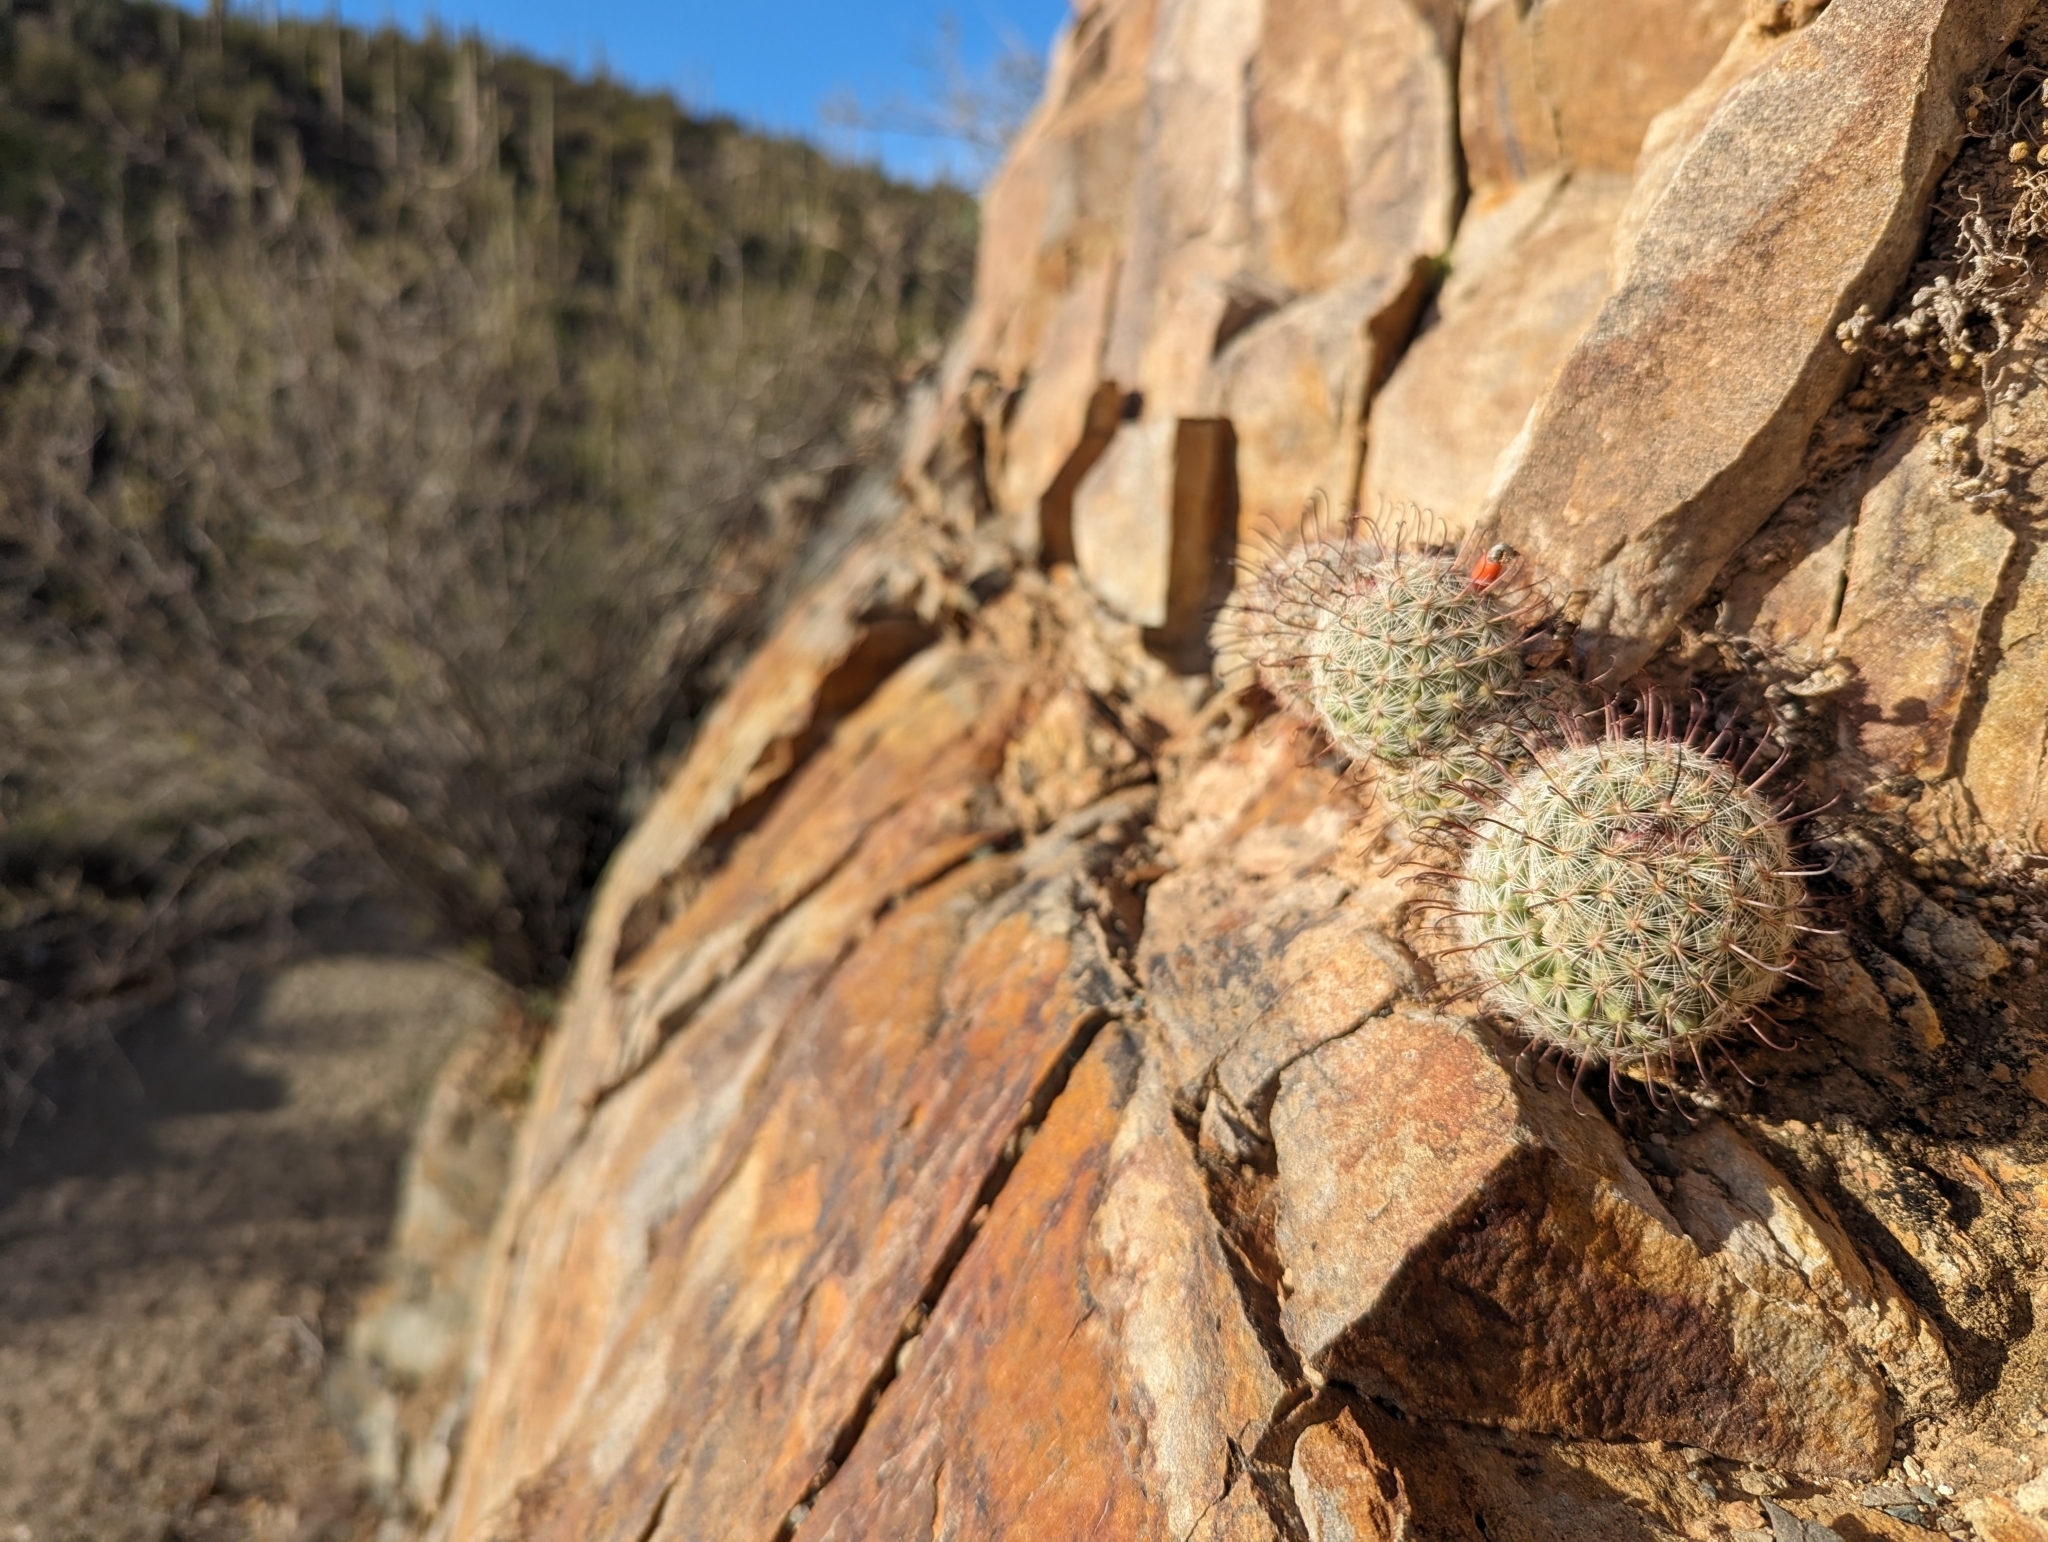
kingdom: Plantae
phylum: Tracheophyta
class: Magnoliopsida
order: Caryophyllales
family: Cactaceae
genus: Cochemiea
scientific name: Cochemiea grahamii
